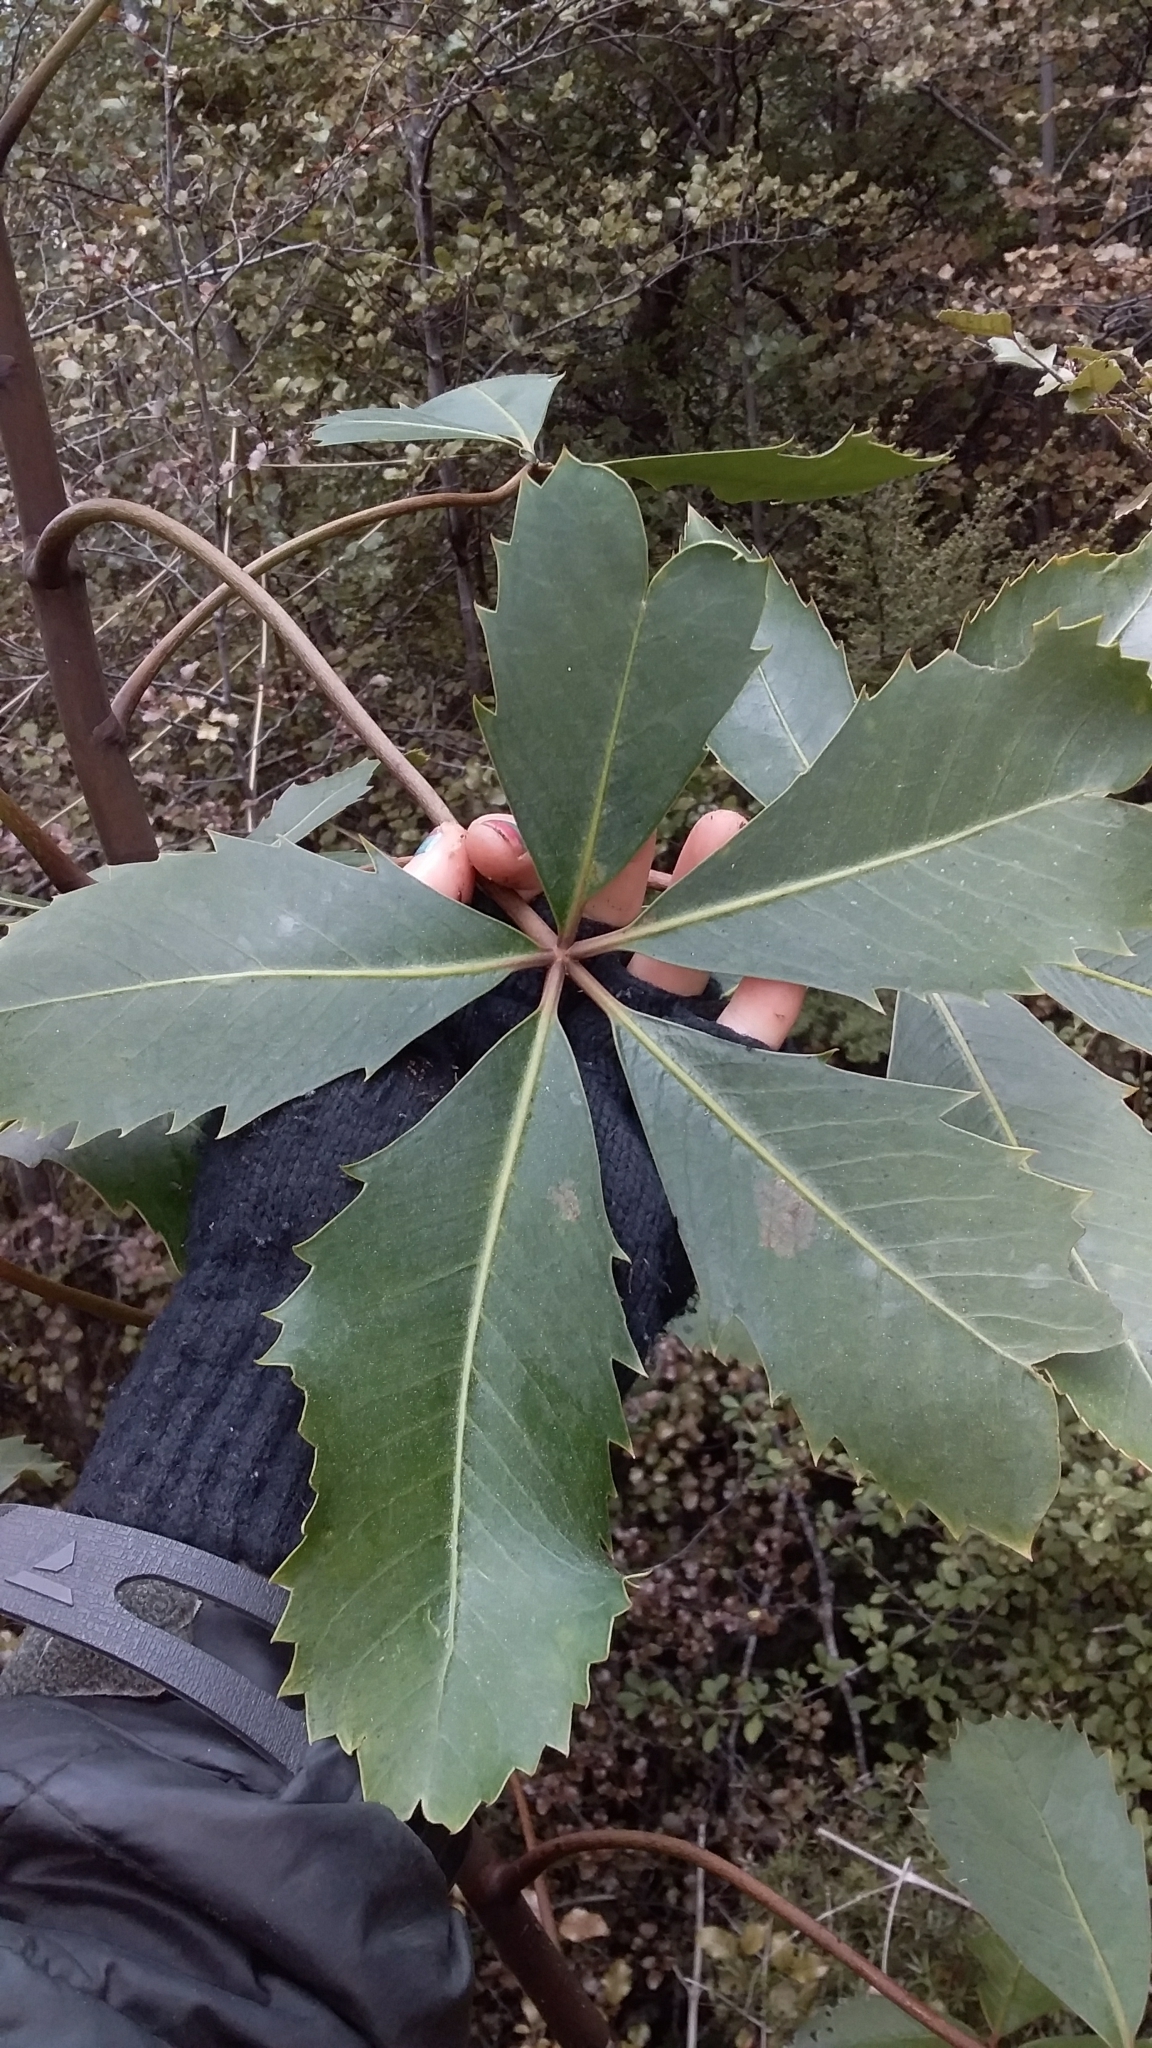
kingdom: Plantae
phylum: Tracheophyta
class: Magnoliopsida
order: Apiales
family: Araliaceae
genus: Neopanax
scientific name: Neopanax colensoi
